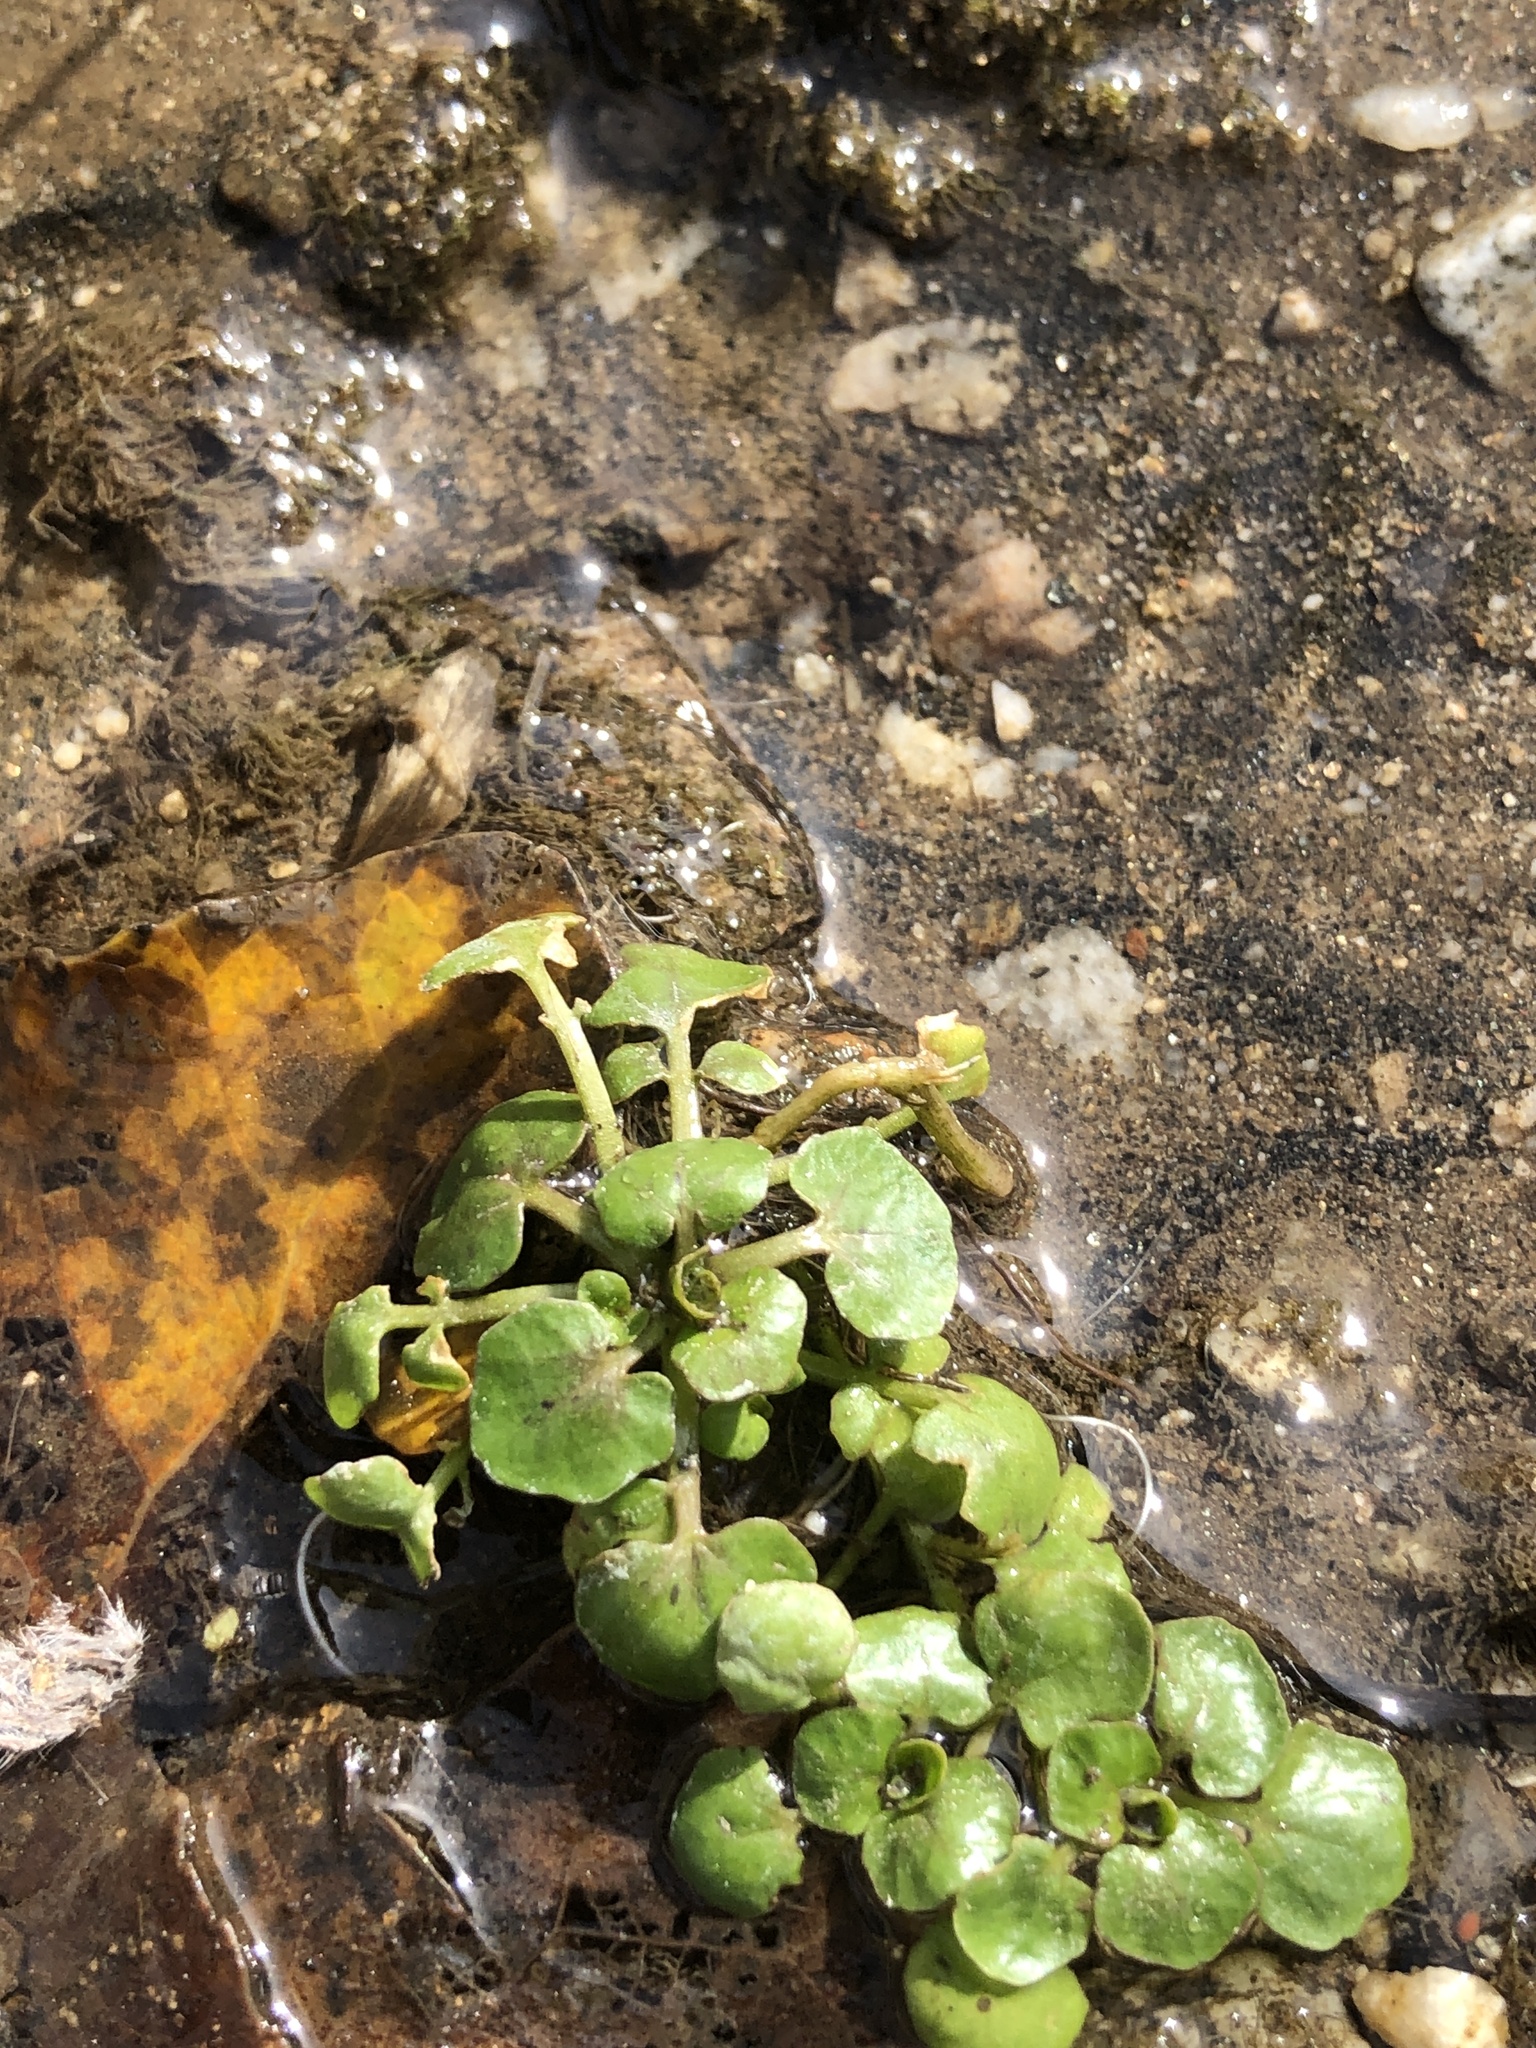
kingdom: Plantae
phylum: Tracheophyta
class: Magnoliopsida
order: Brassicales
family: Brassicaceae
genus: Nasturtium
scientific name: Nasturtium officinale
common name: Watercress
